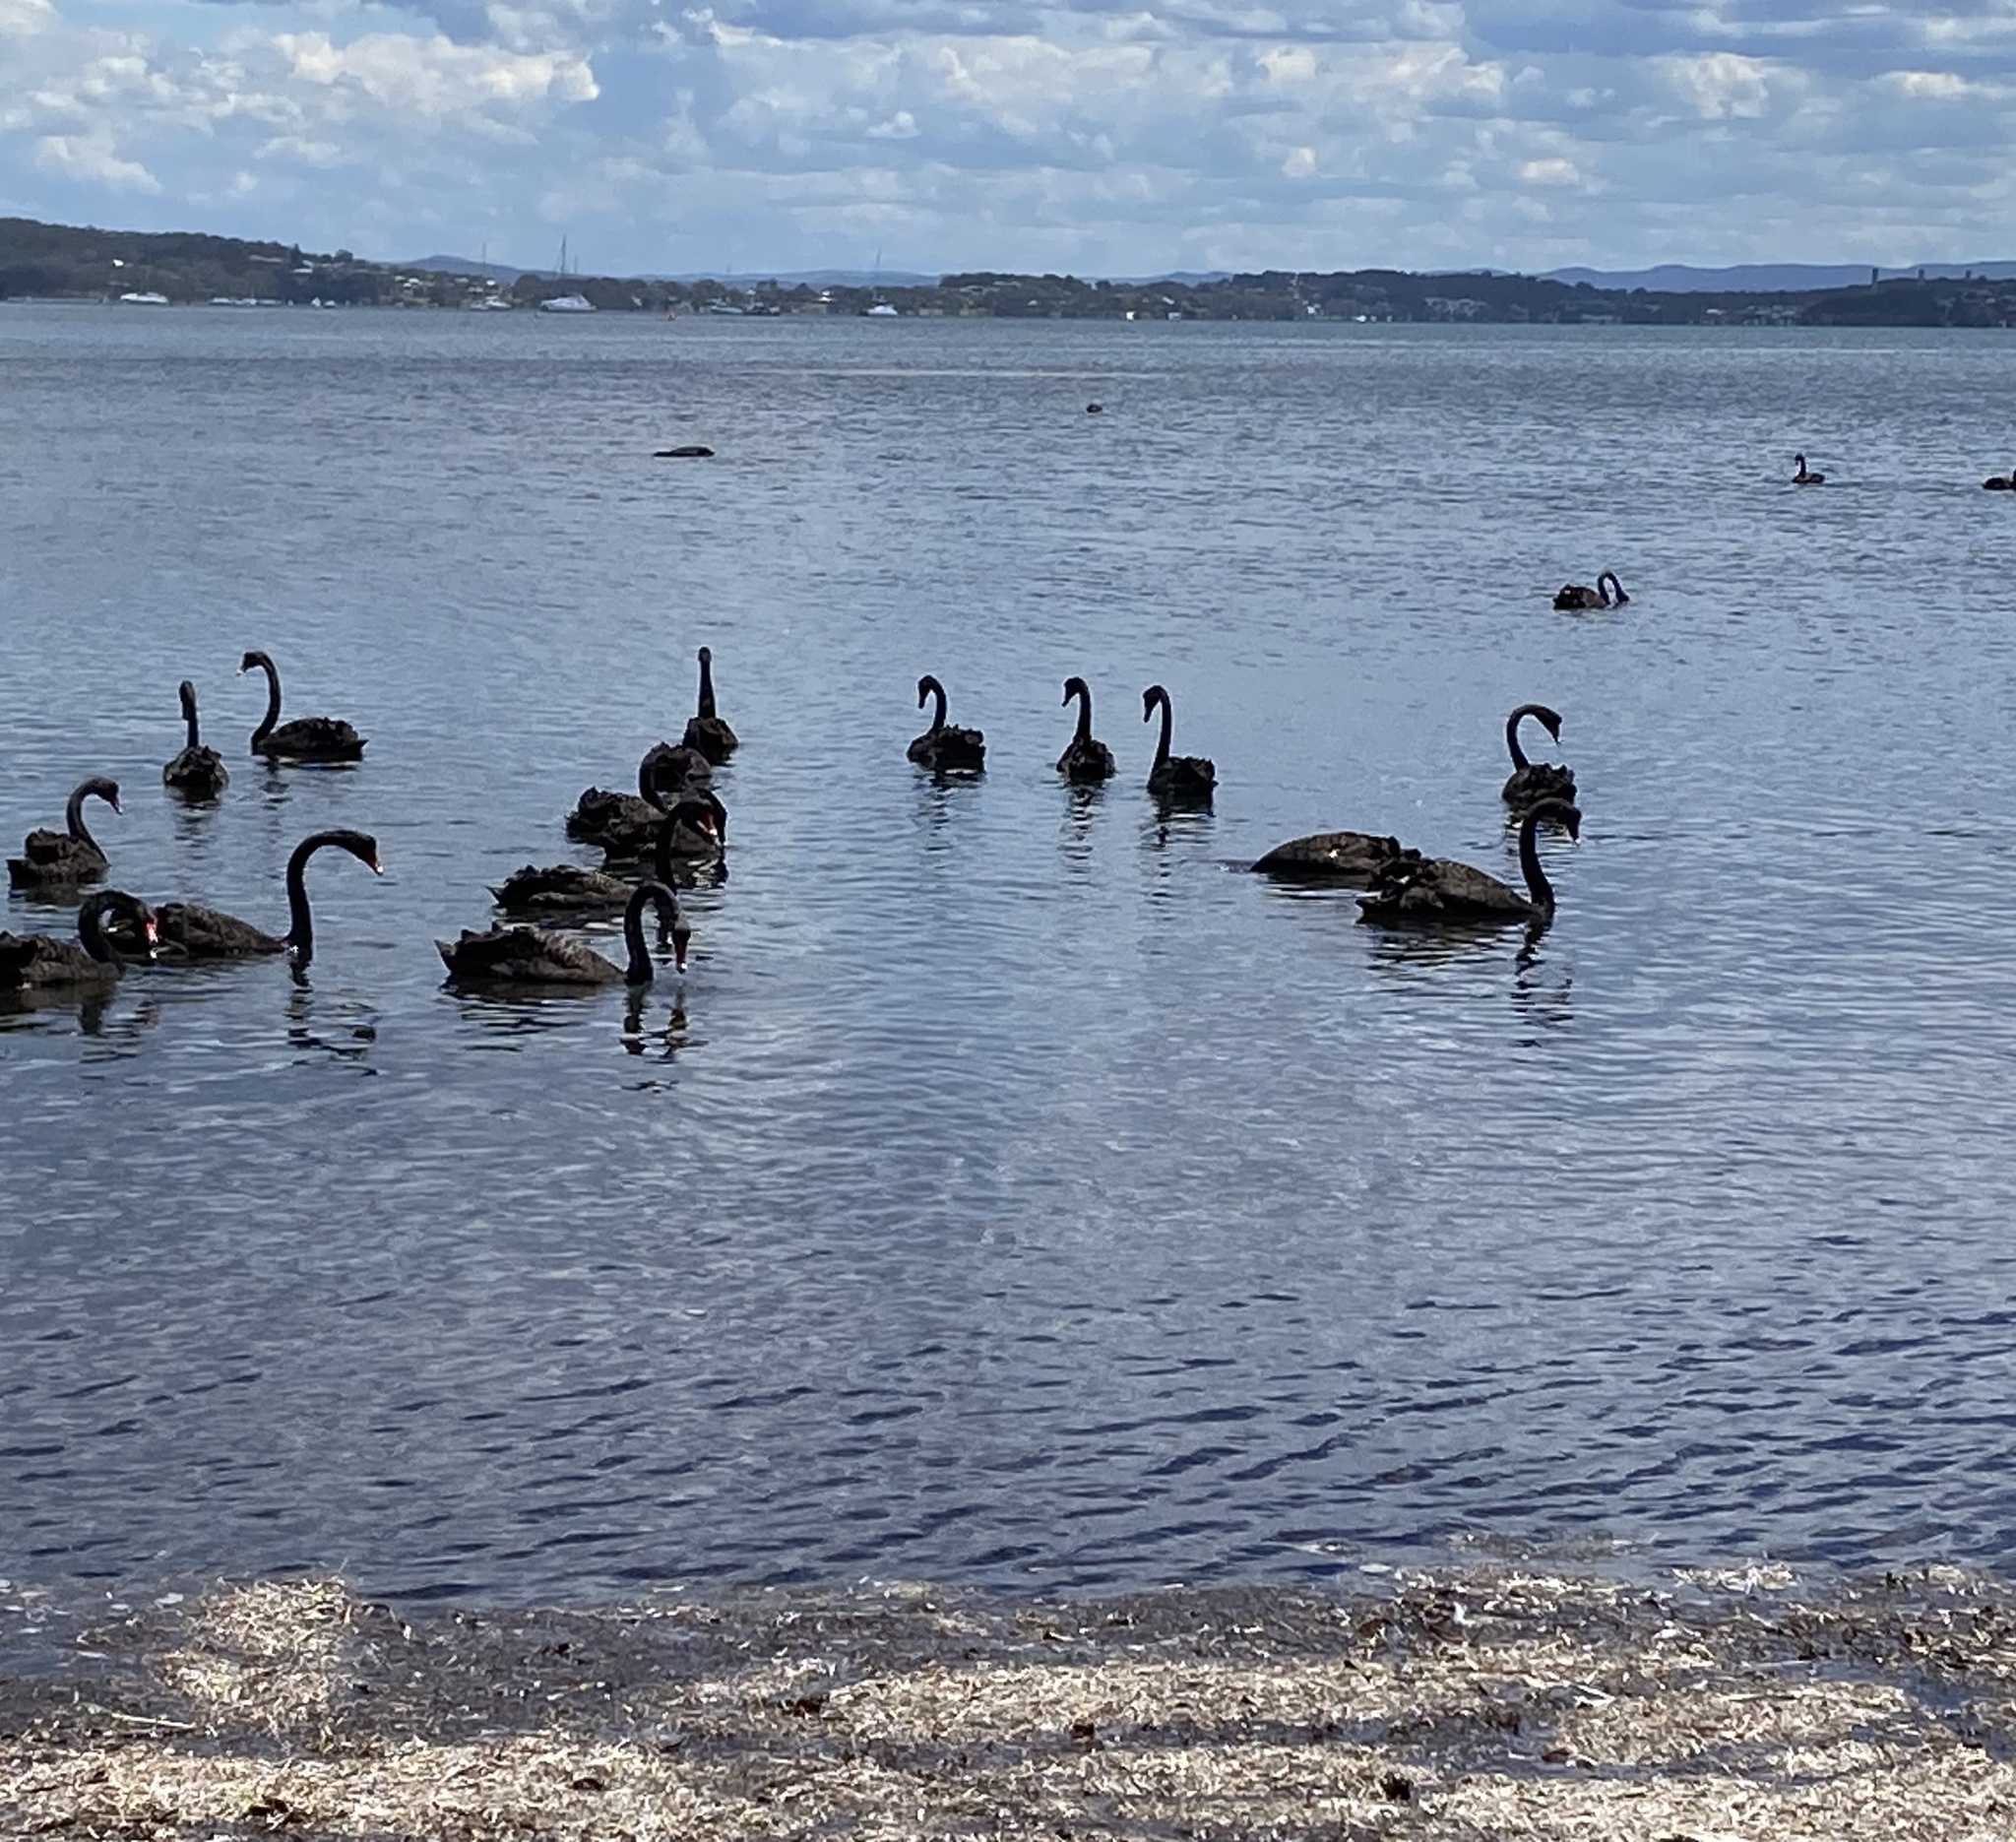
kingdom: Animalia
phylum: Chordata
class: Aves
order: Anseriformes
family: Anatidae
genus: Cygnus
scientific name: Cygnus atratus
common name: Black swan
